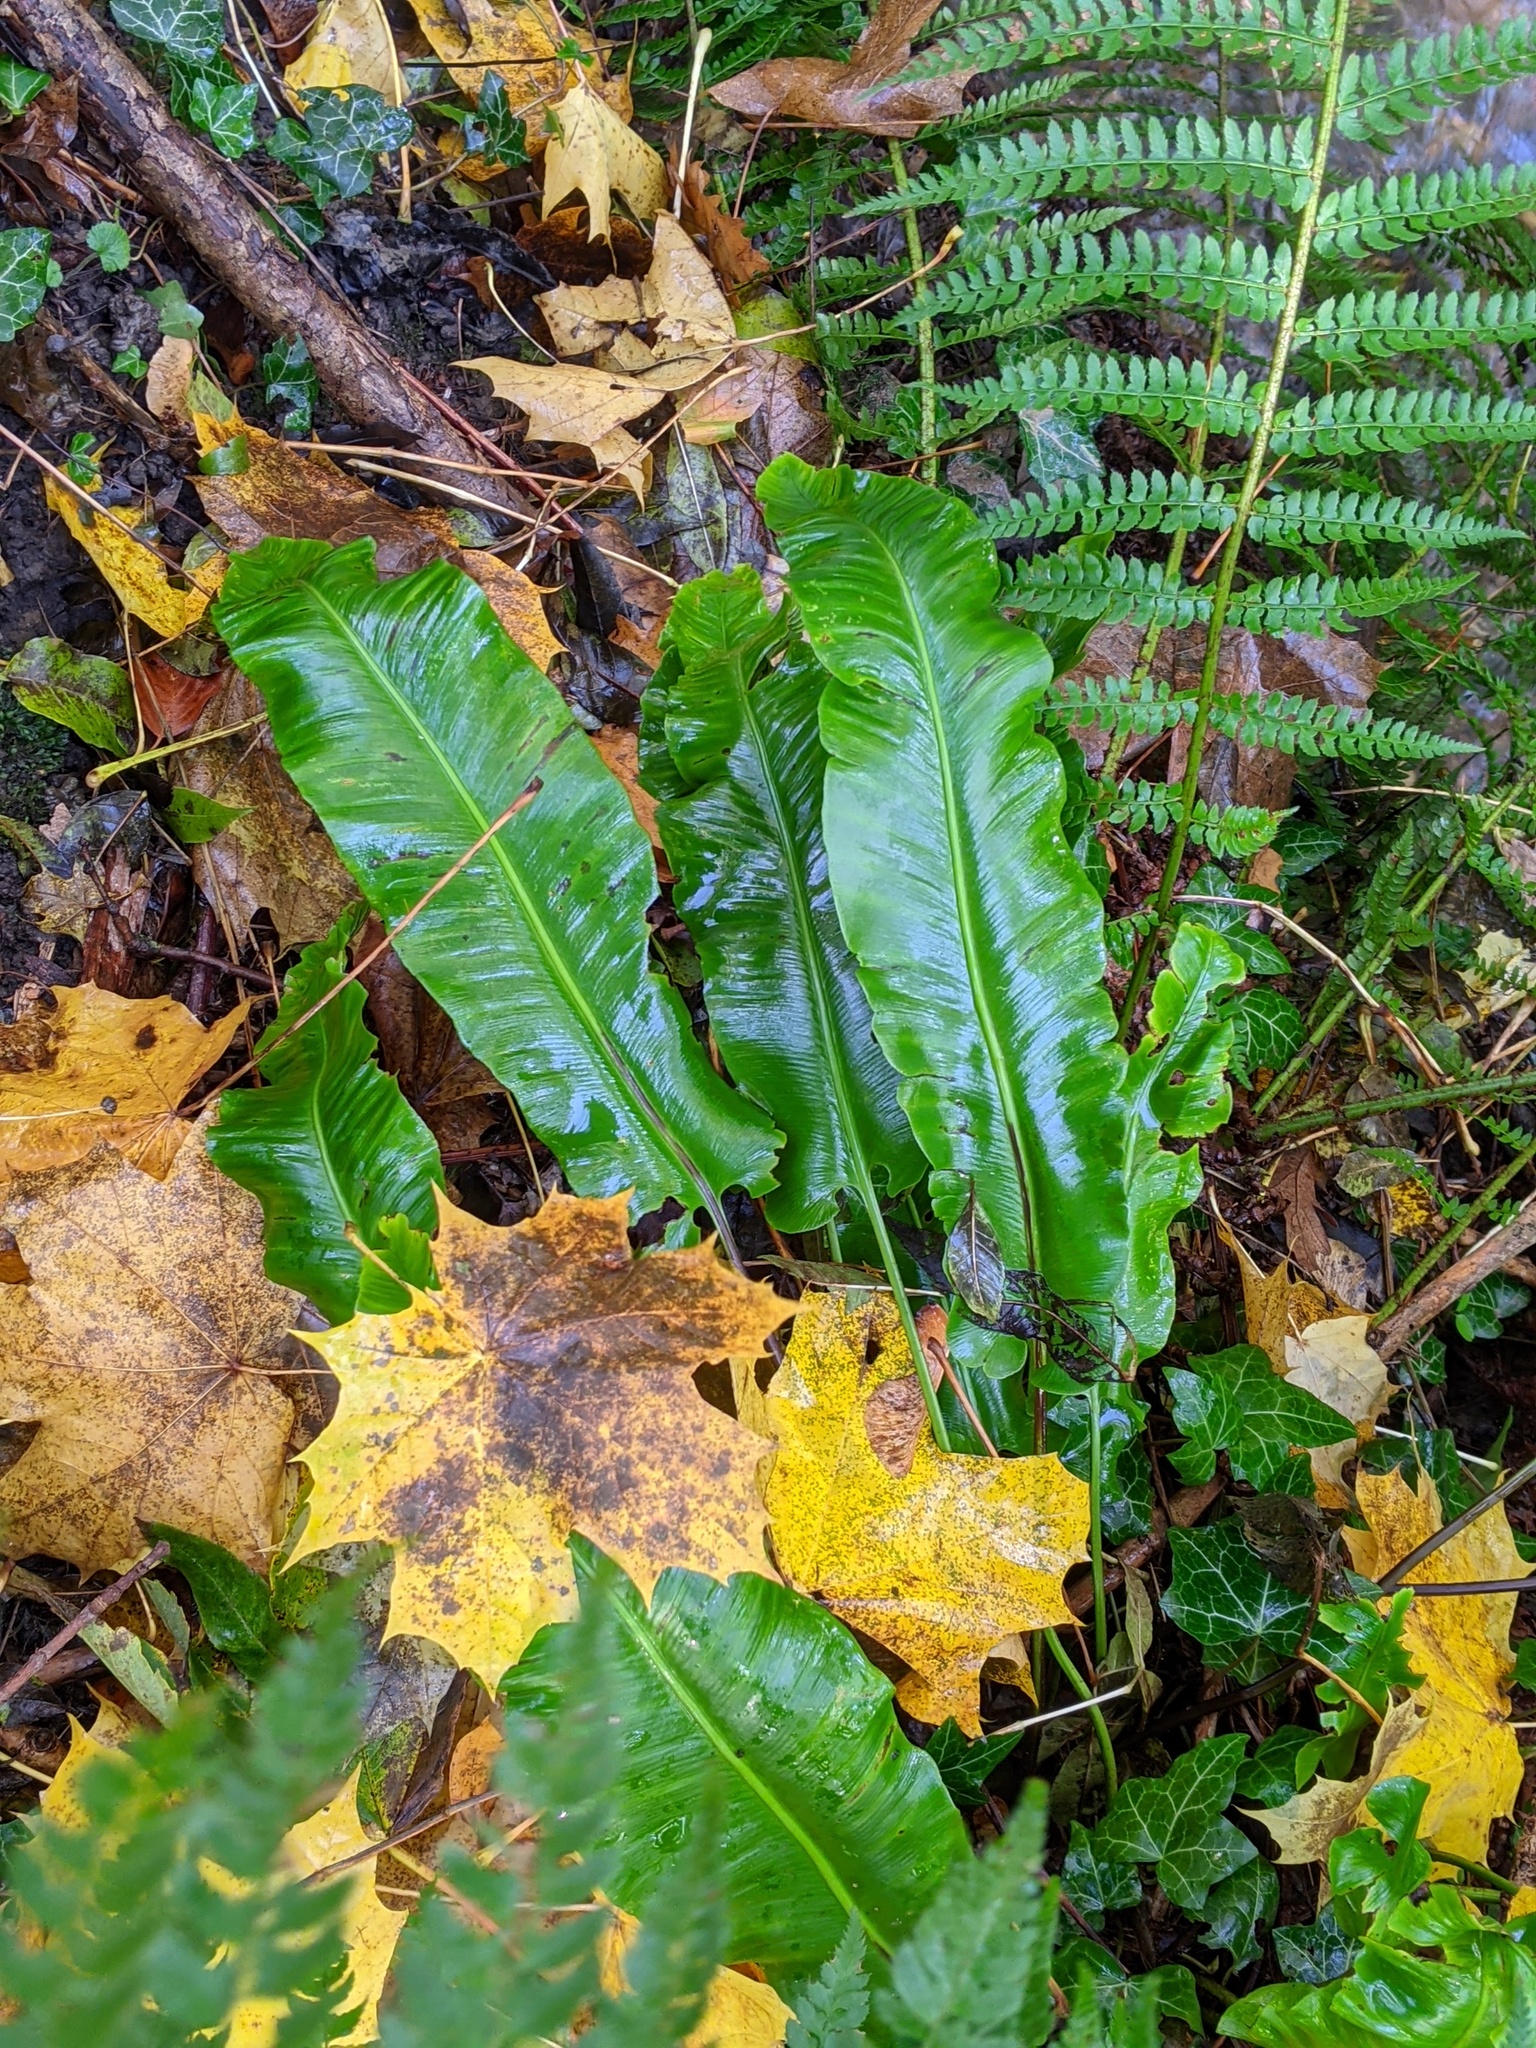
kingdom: Plantae
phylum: Tracheophyta
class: Polypodiopsida
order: Polypodiales
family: Aspleniaceae
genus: Asplenium
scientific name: Asplenium scolopendrium
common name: Hart's-tongue fern
